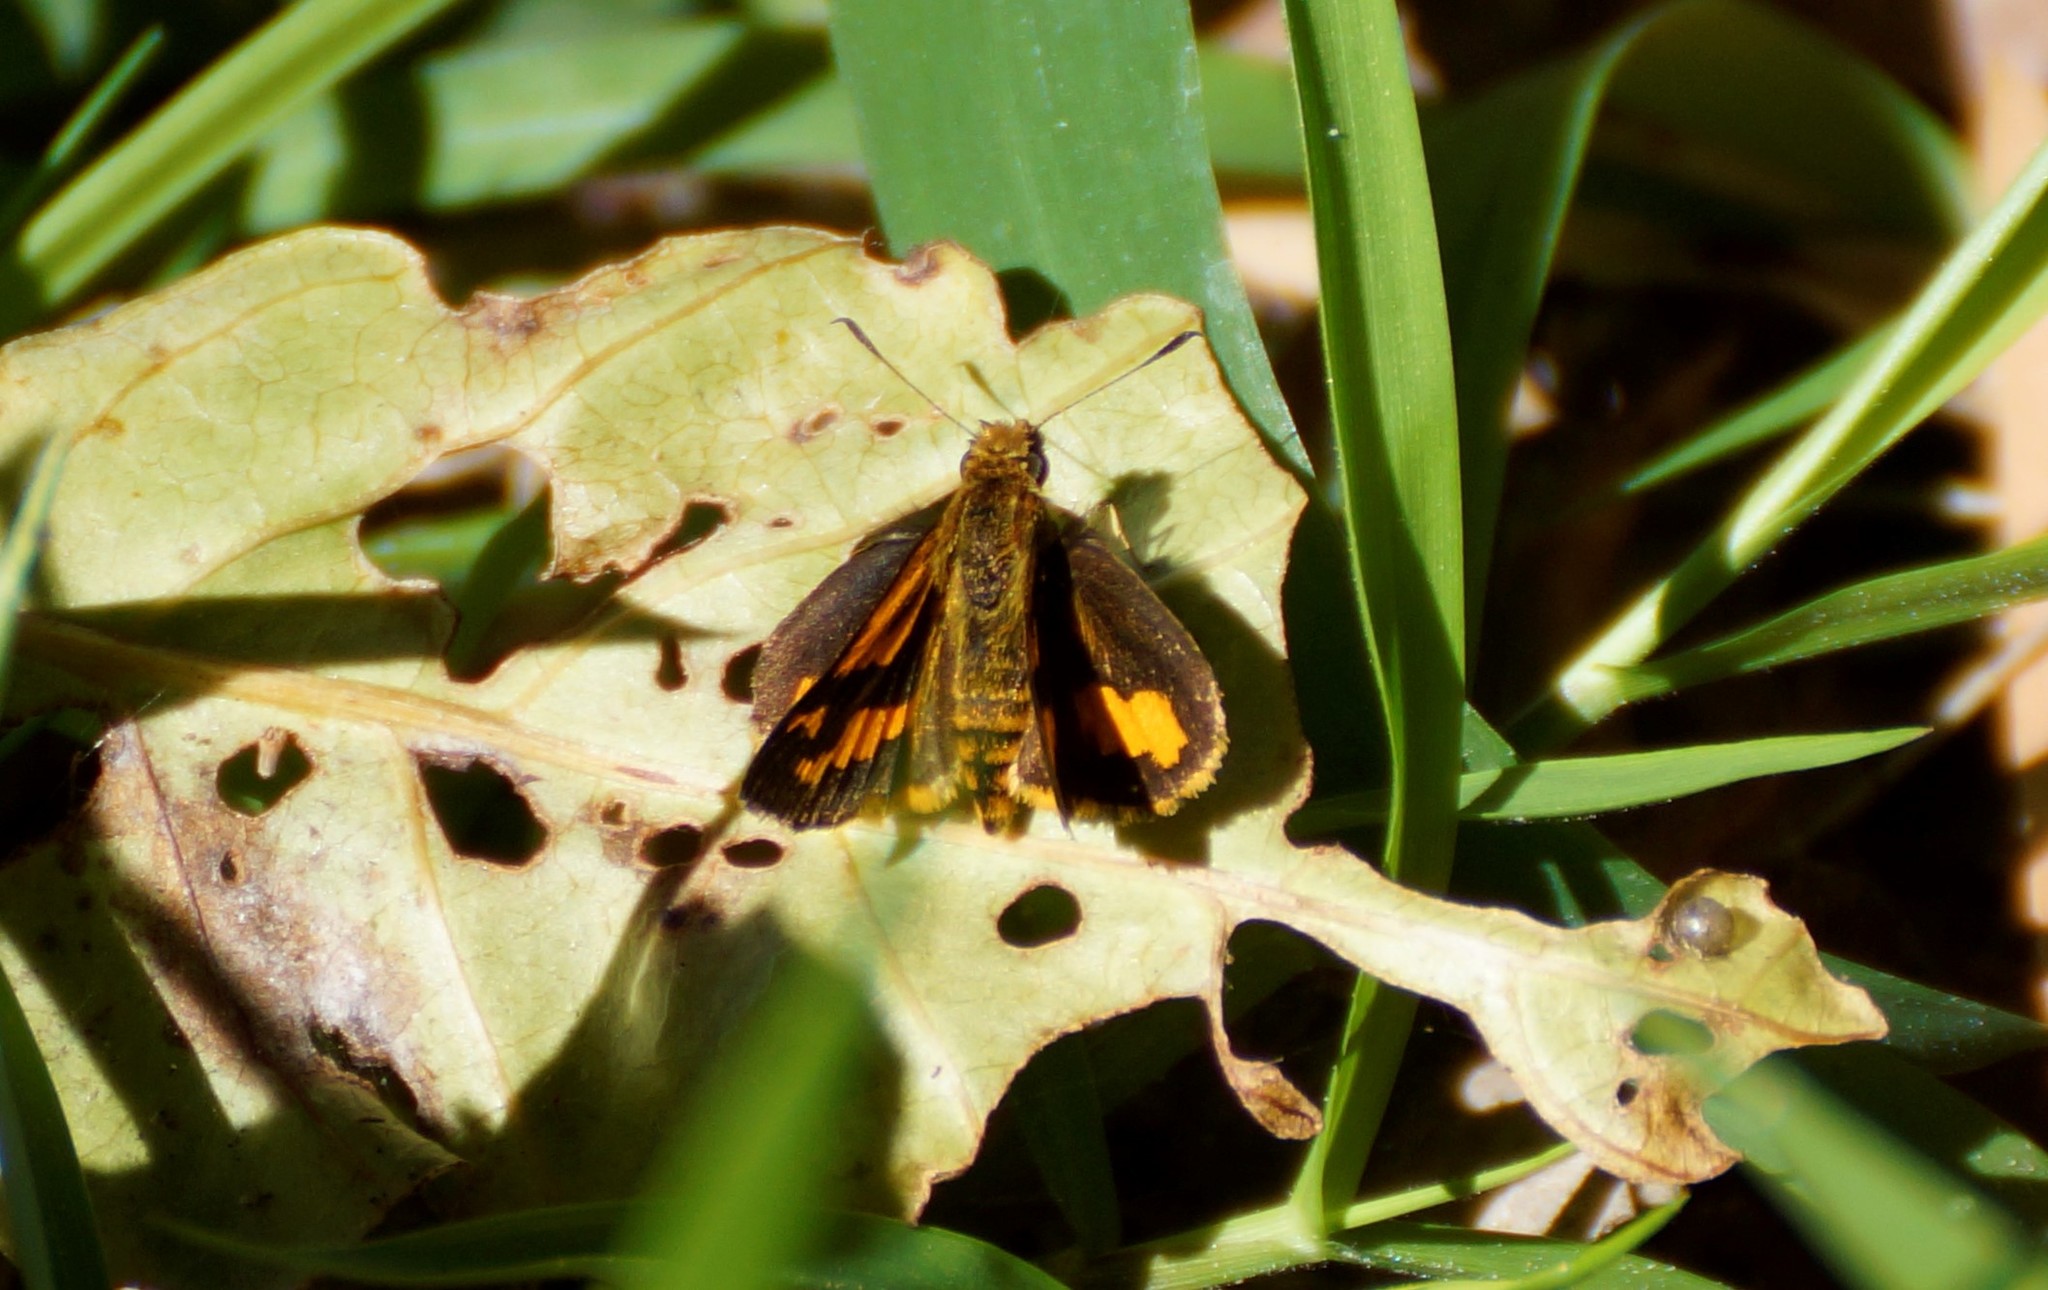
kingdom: Animalia
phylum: Arthropoda
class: Insecta
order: Lepidoptera
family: Hesperiidae
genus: Ocybadistes
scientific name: Ocybadistes ardea
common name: Dark orange dart
